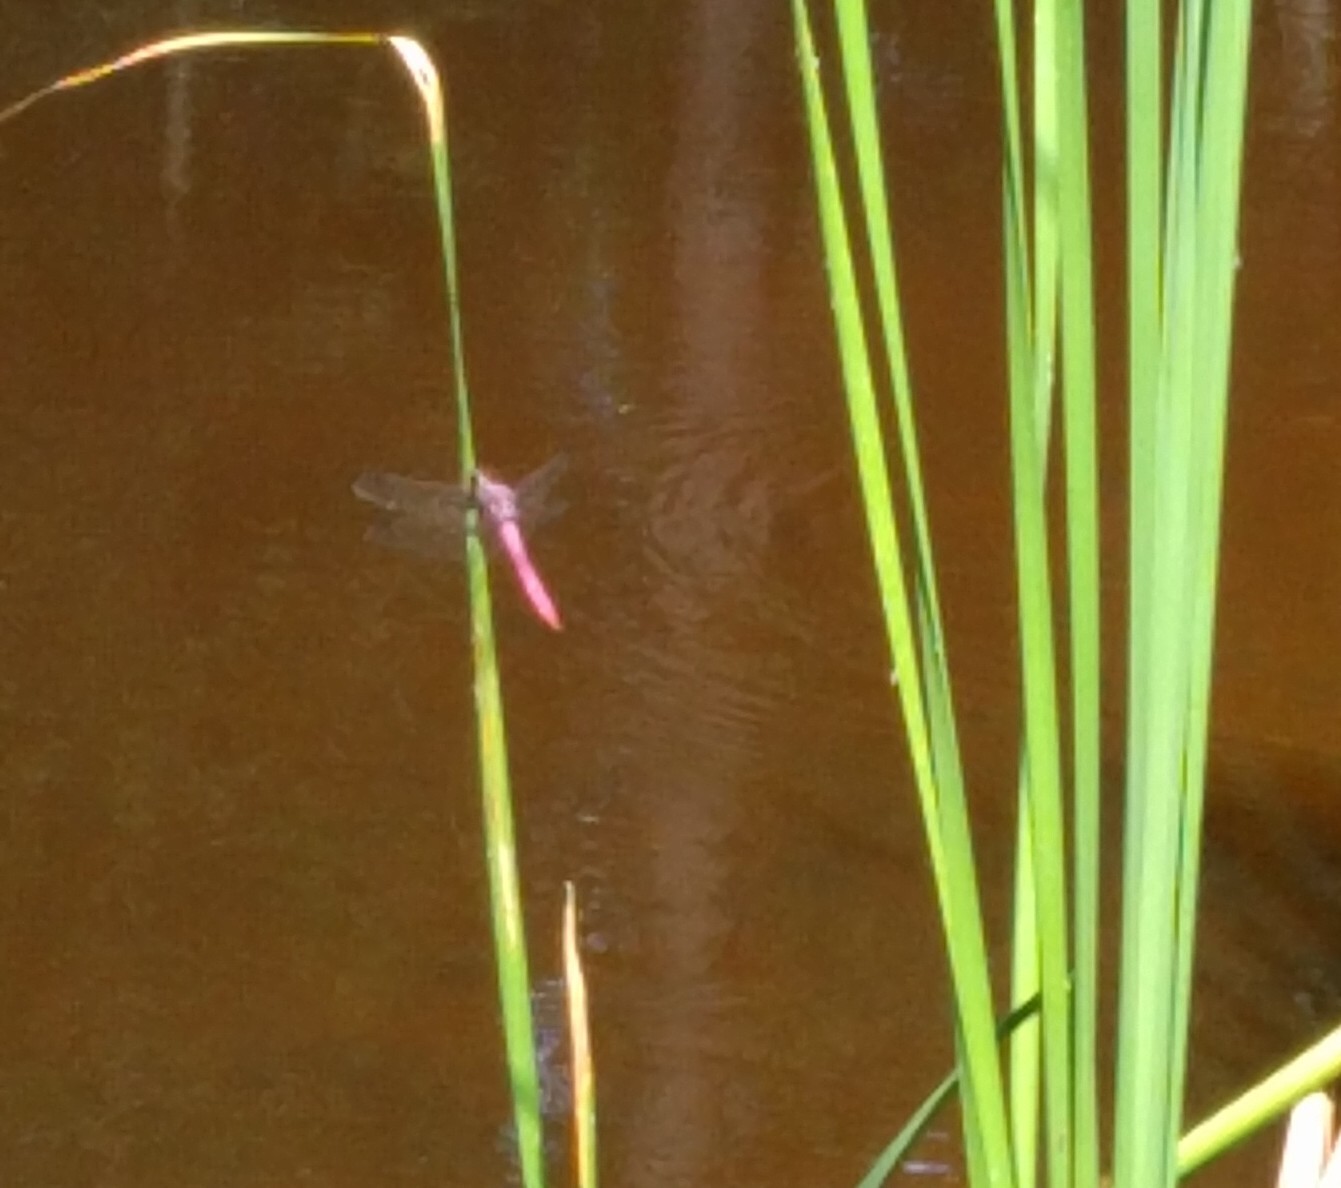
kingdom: Animalia
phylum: Arthropoda
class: Insecta
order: Odonata
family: Libellulidae
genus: Orthemis
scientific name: Orthemis ferruginea
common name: Roseate skimmer
